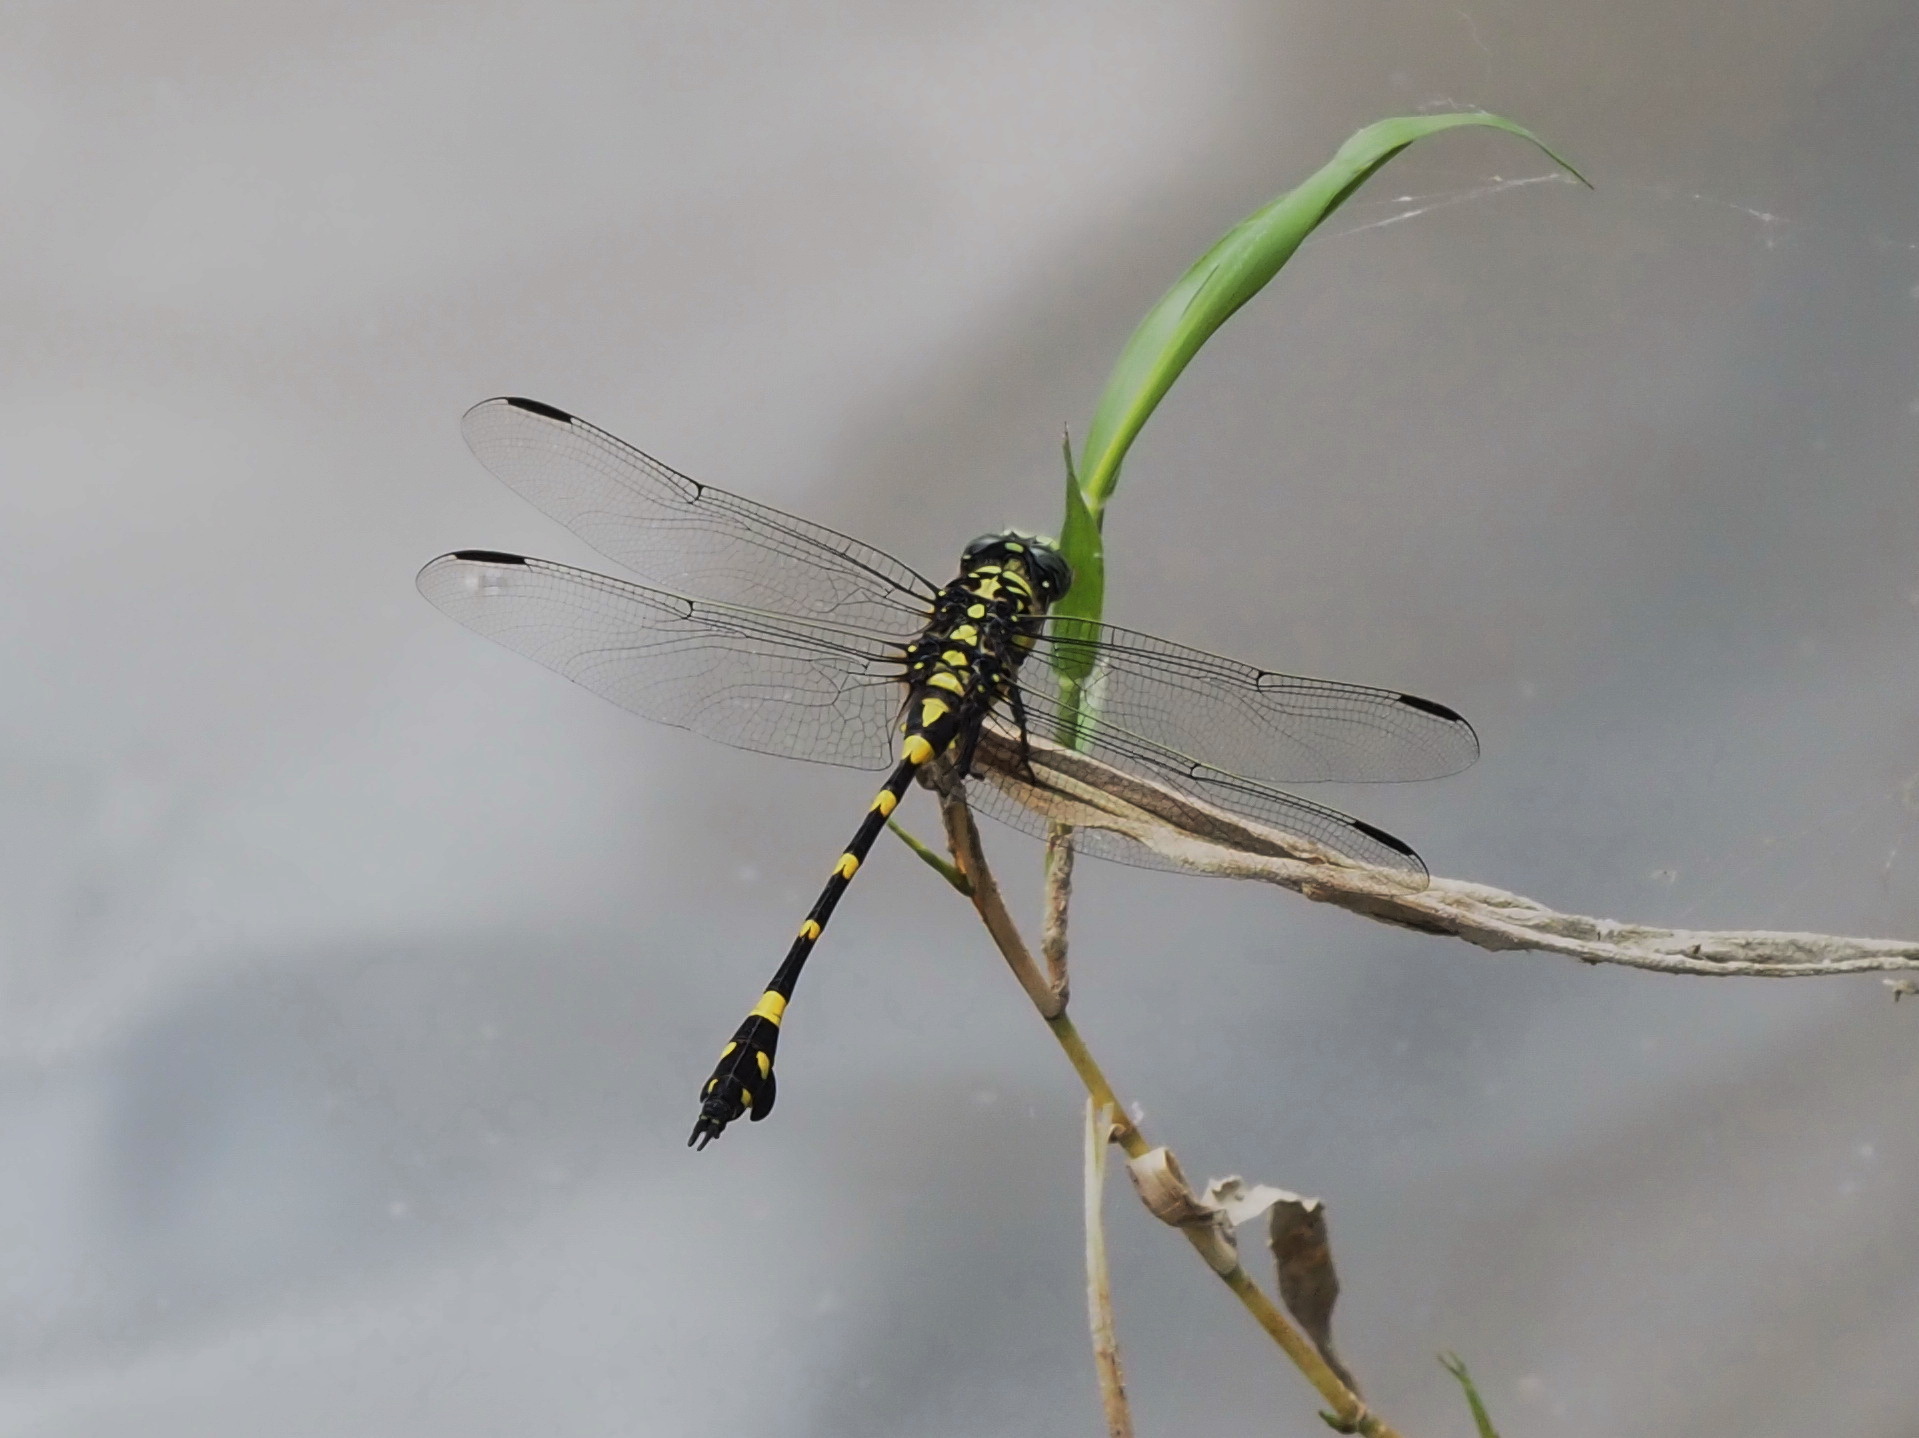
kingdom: Animalia
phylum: Arthropoda
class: Insecta
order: Odonata
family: Gomphidae
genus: Ictinogomphus
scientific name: Ictinogomphus rapax
